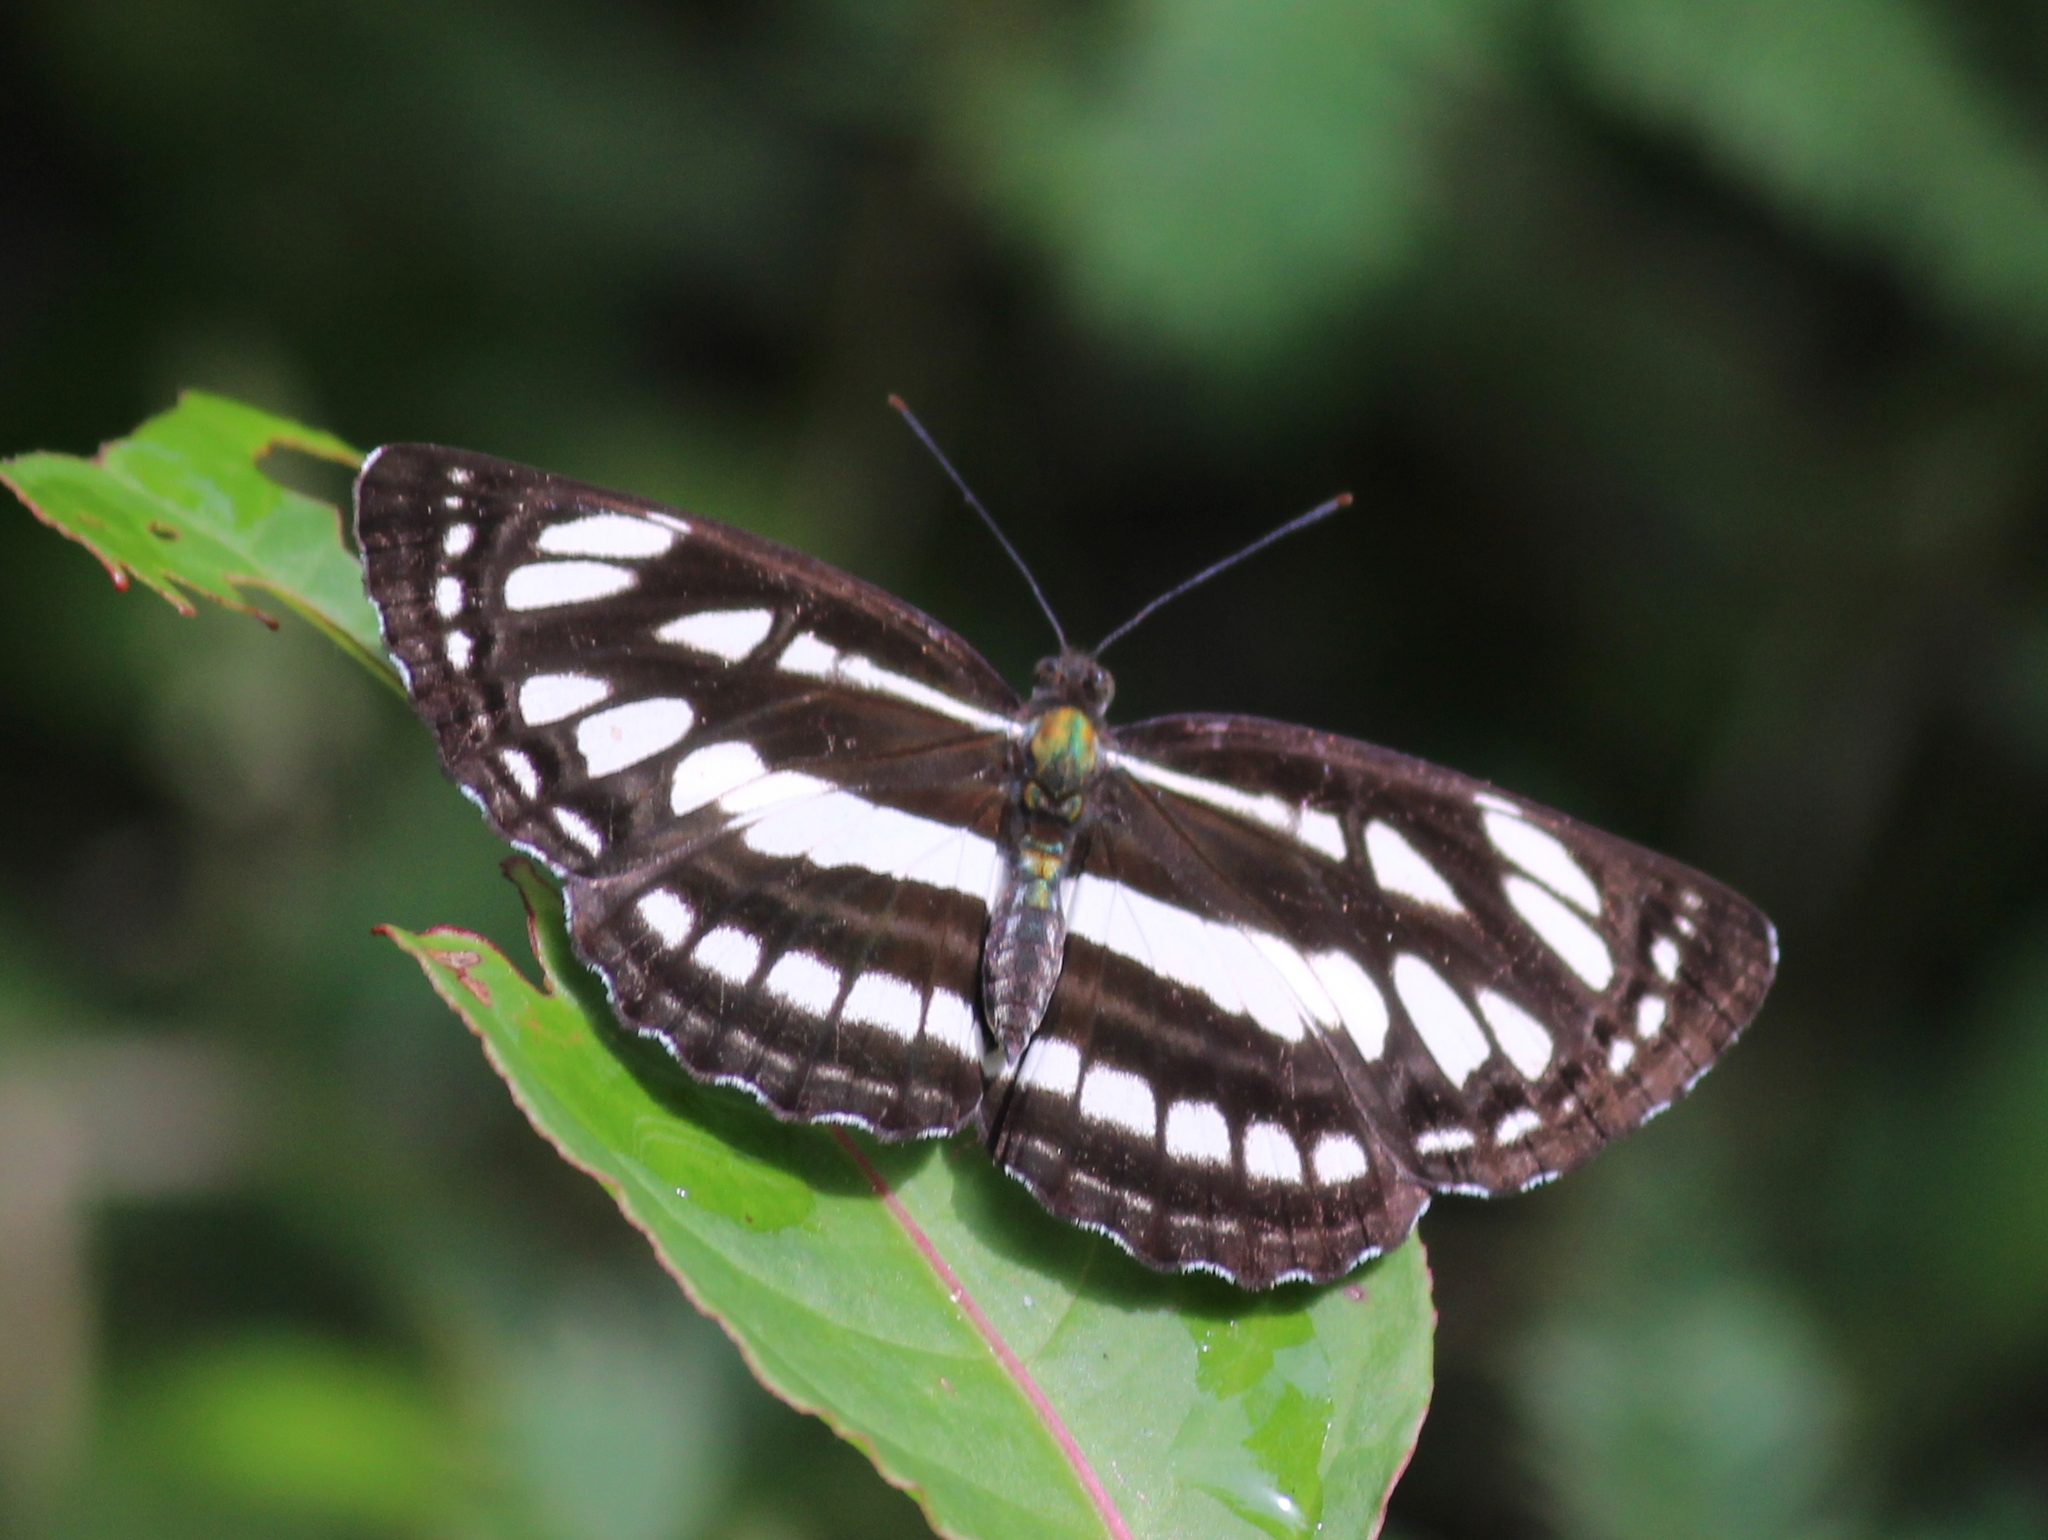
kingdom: Animalia
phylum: Arthropoda
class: Insecta
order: Lepidoptera
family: Nymphalidae
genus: Neptis
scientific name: Neptis hylas
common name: Common sailer
